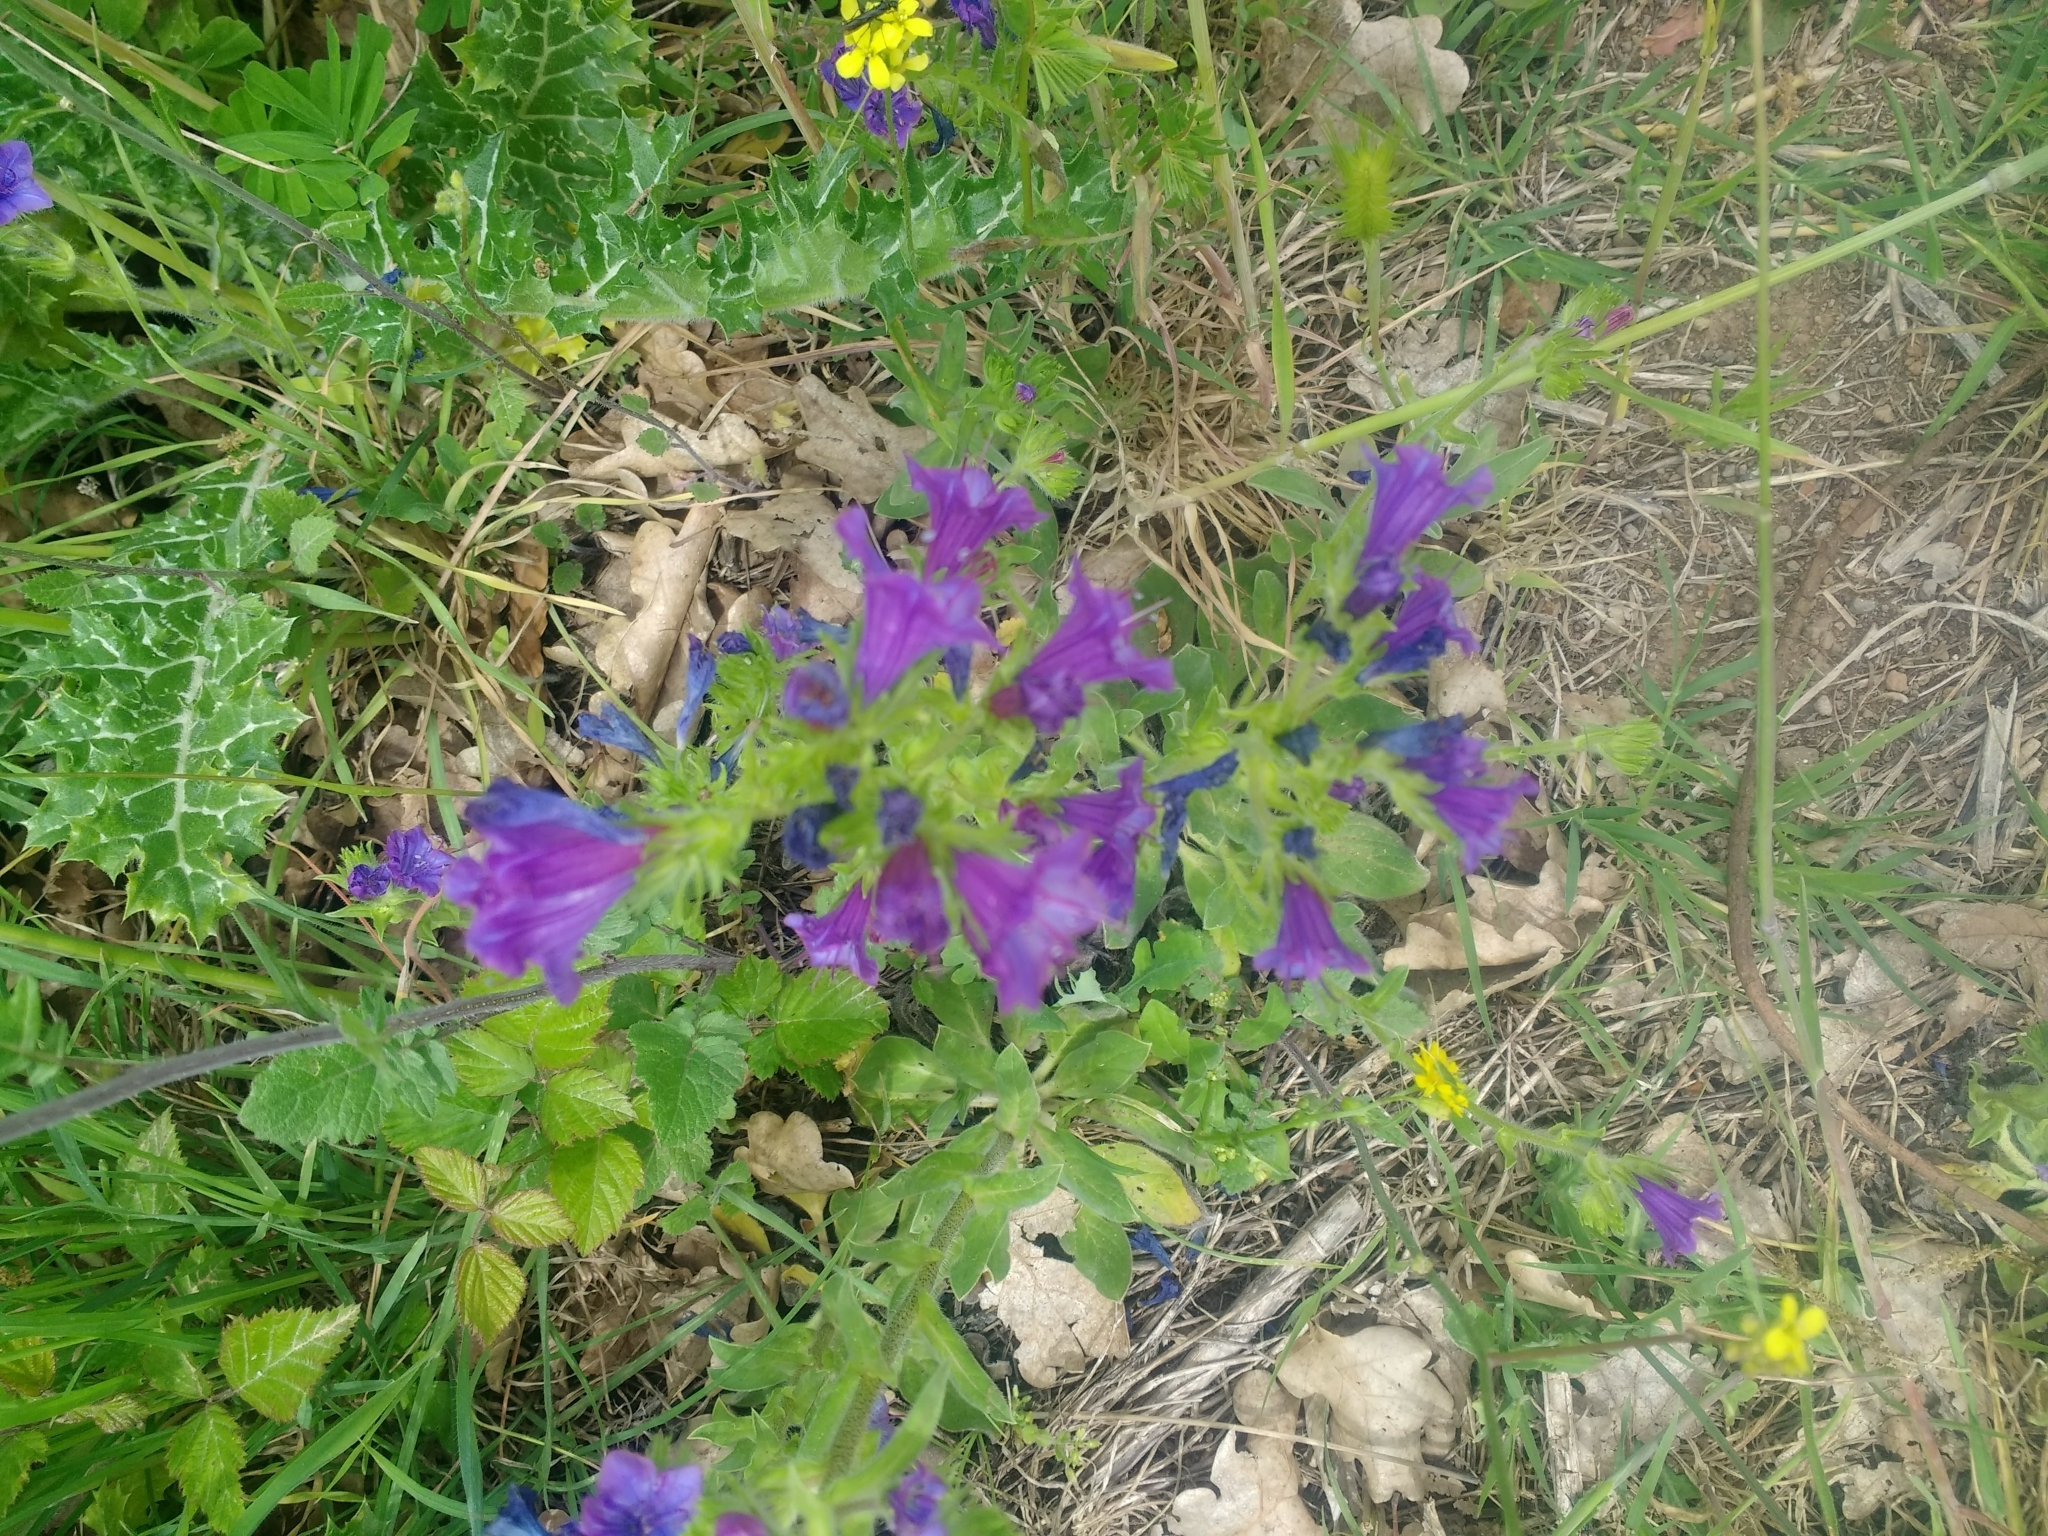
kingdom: Plantae
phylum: Tracheophyta
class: Magnoliopsida
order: Boraginales
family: Boraginaceae
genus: Echium
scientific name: Echium plantagineum
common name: Purple viper's-bugloss
